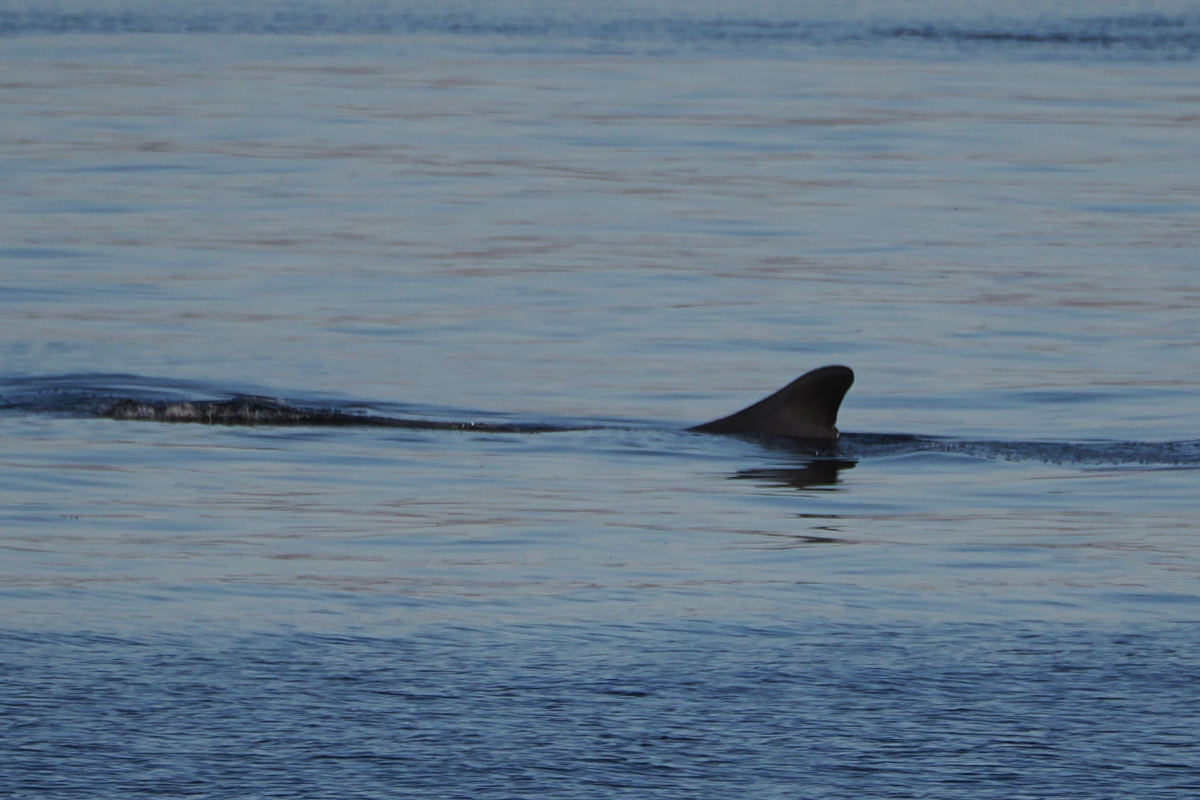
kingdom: Animalia
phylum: Chordata
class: Mammalia
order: Cetacea
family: Balaenopteridae
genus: Balaenoptera
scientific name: Balaenoptera physalus
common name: Fin whale
